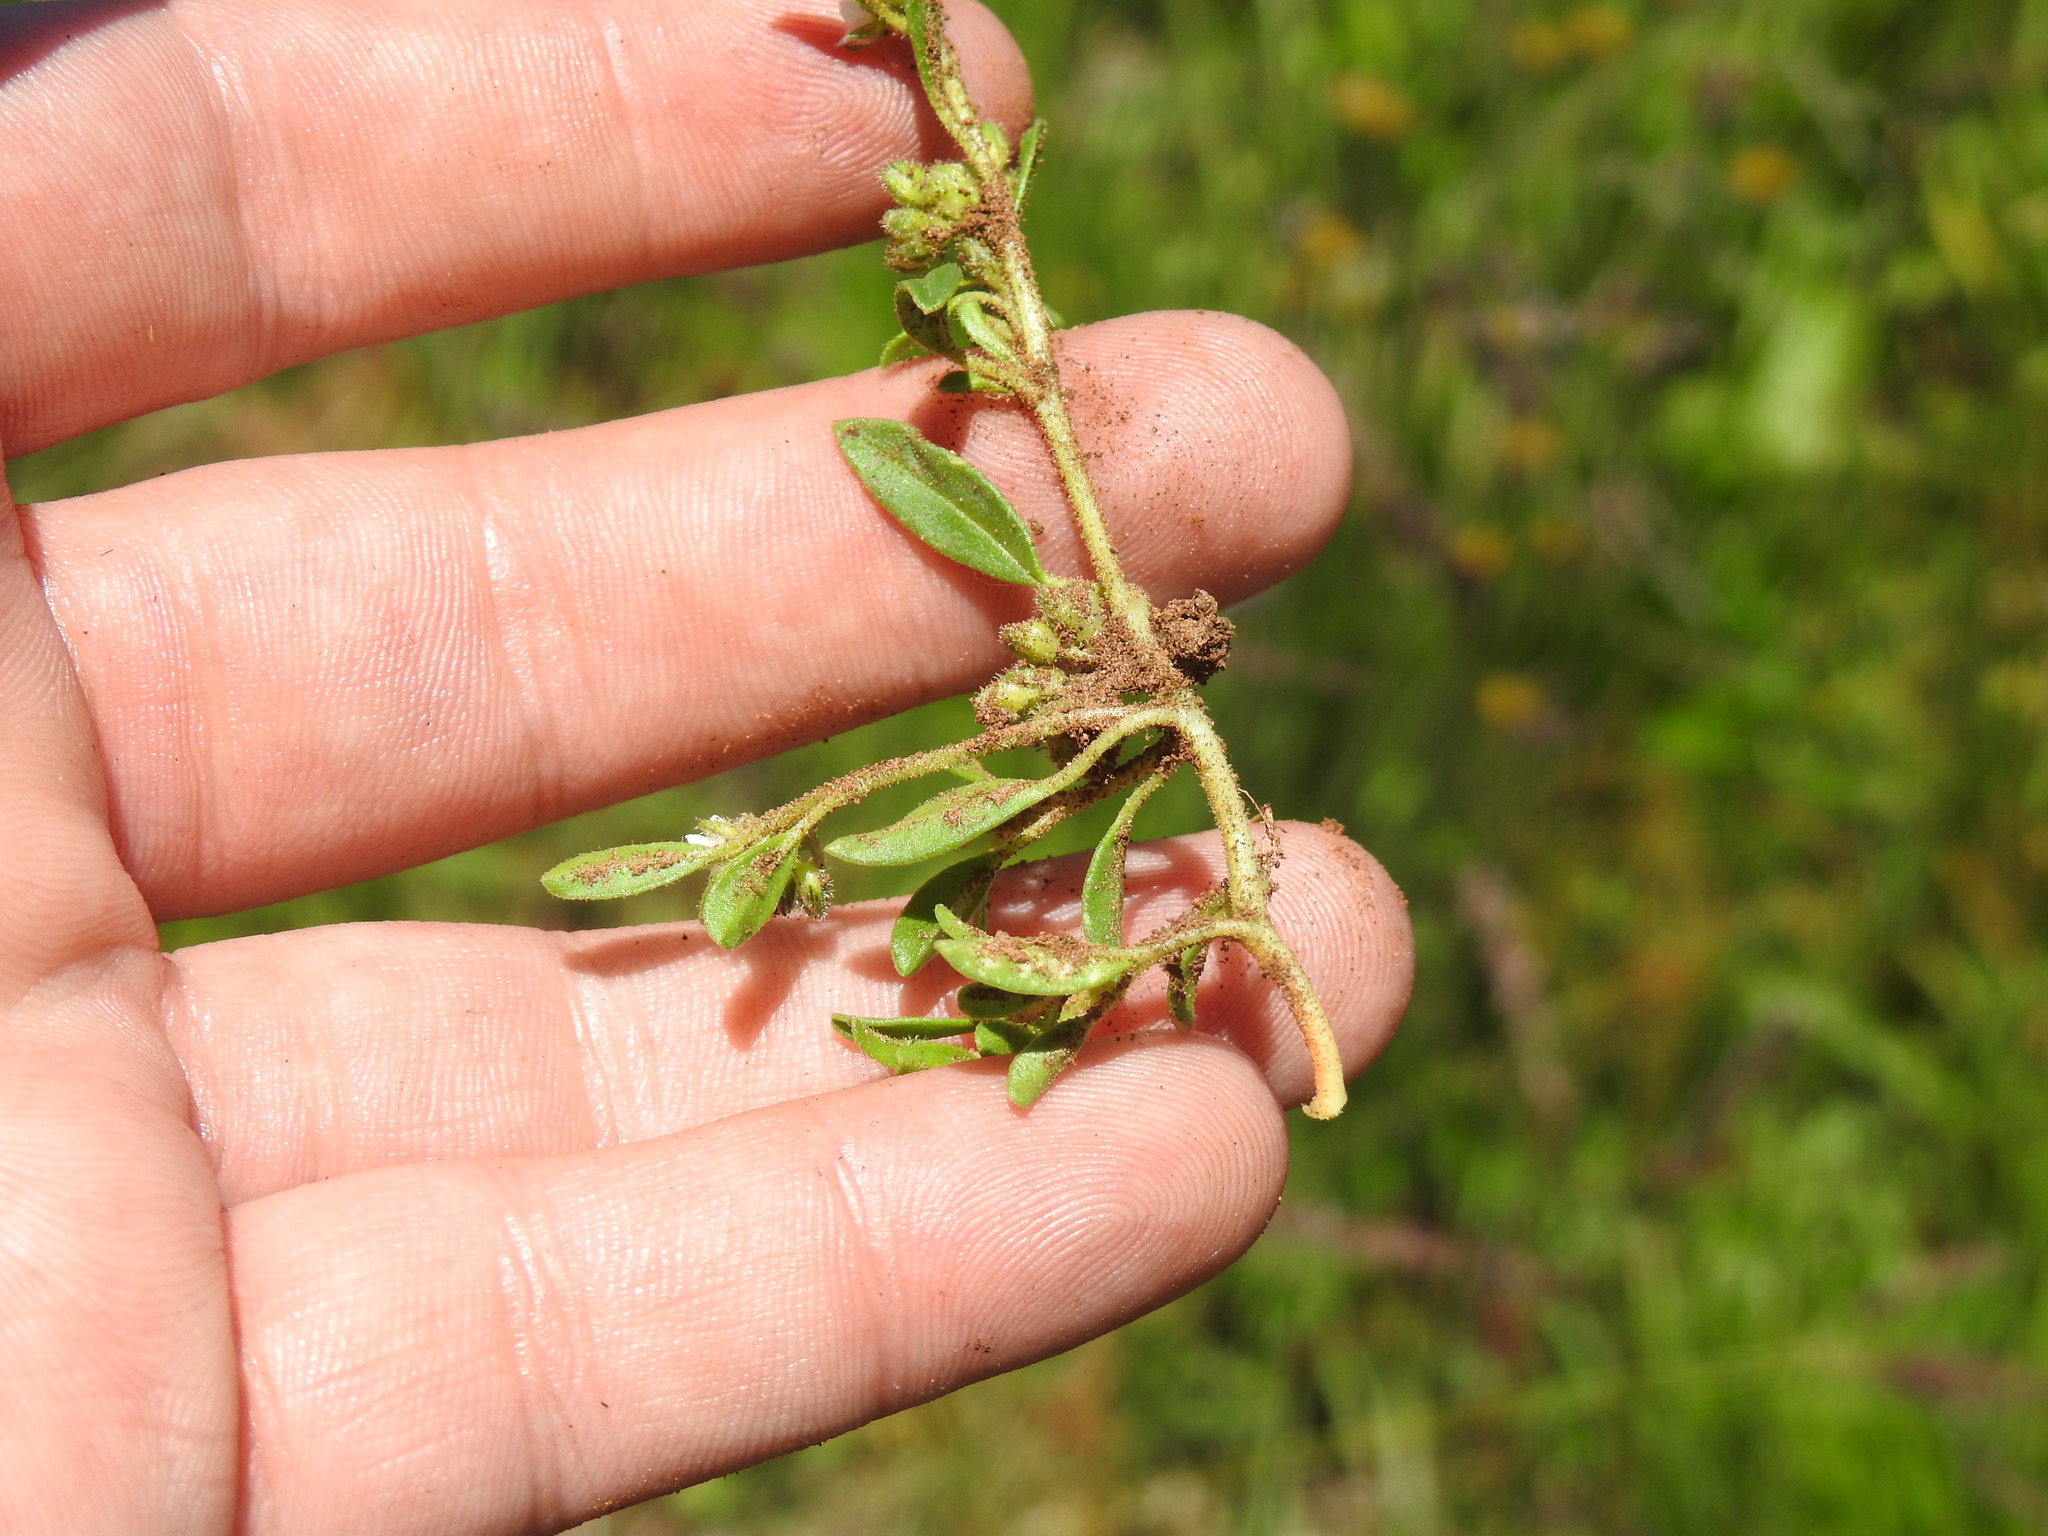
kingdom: Plantae
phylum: Tracheophyta
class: Magnoliopsida
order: Caryophyllales
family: Limeaceae
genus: Limeum
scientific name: Limeum viscosum
